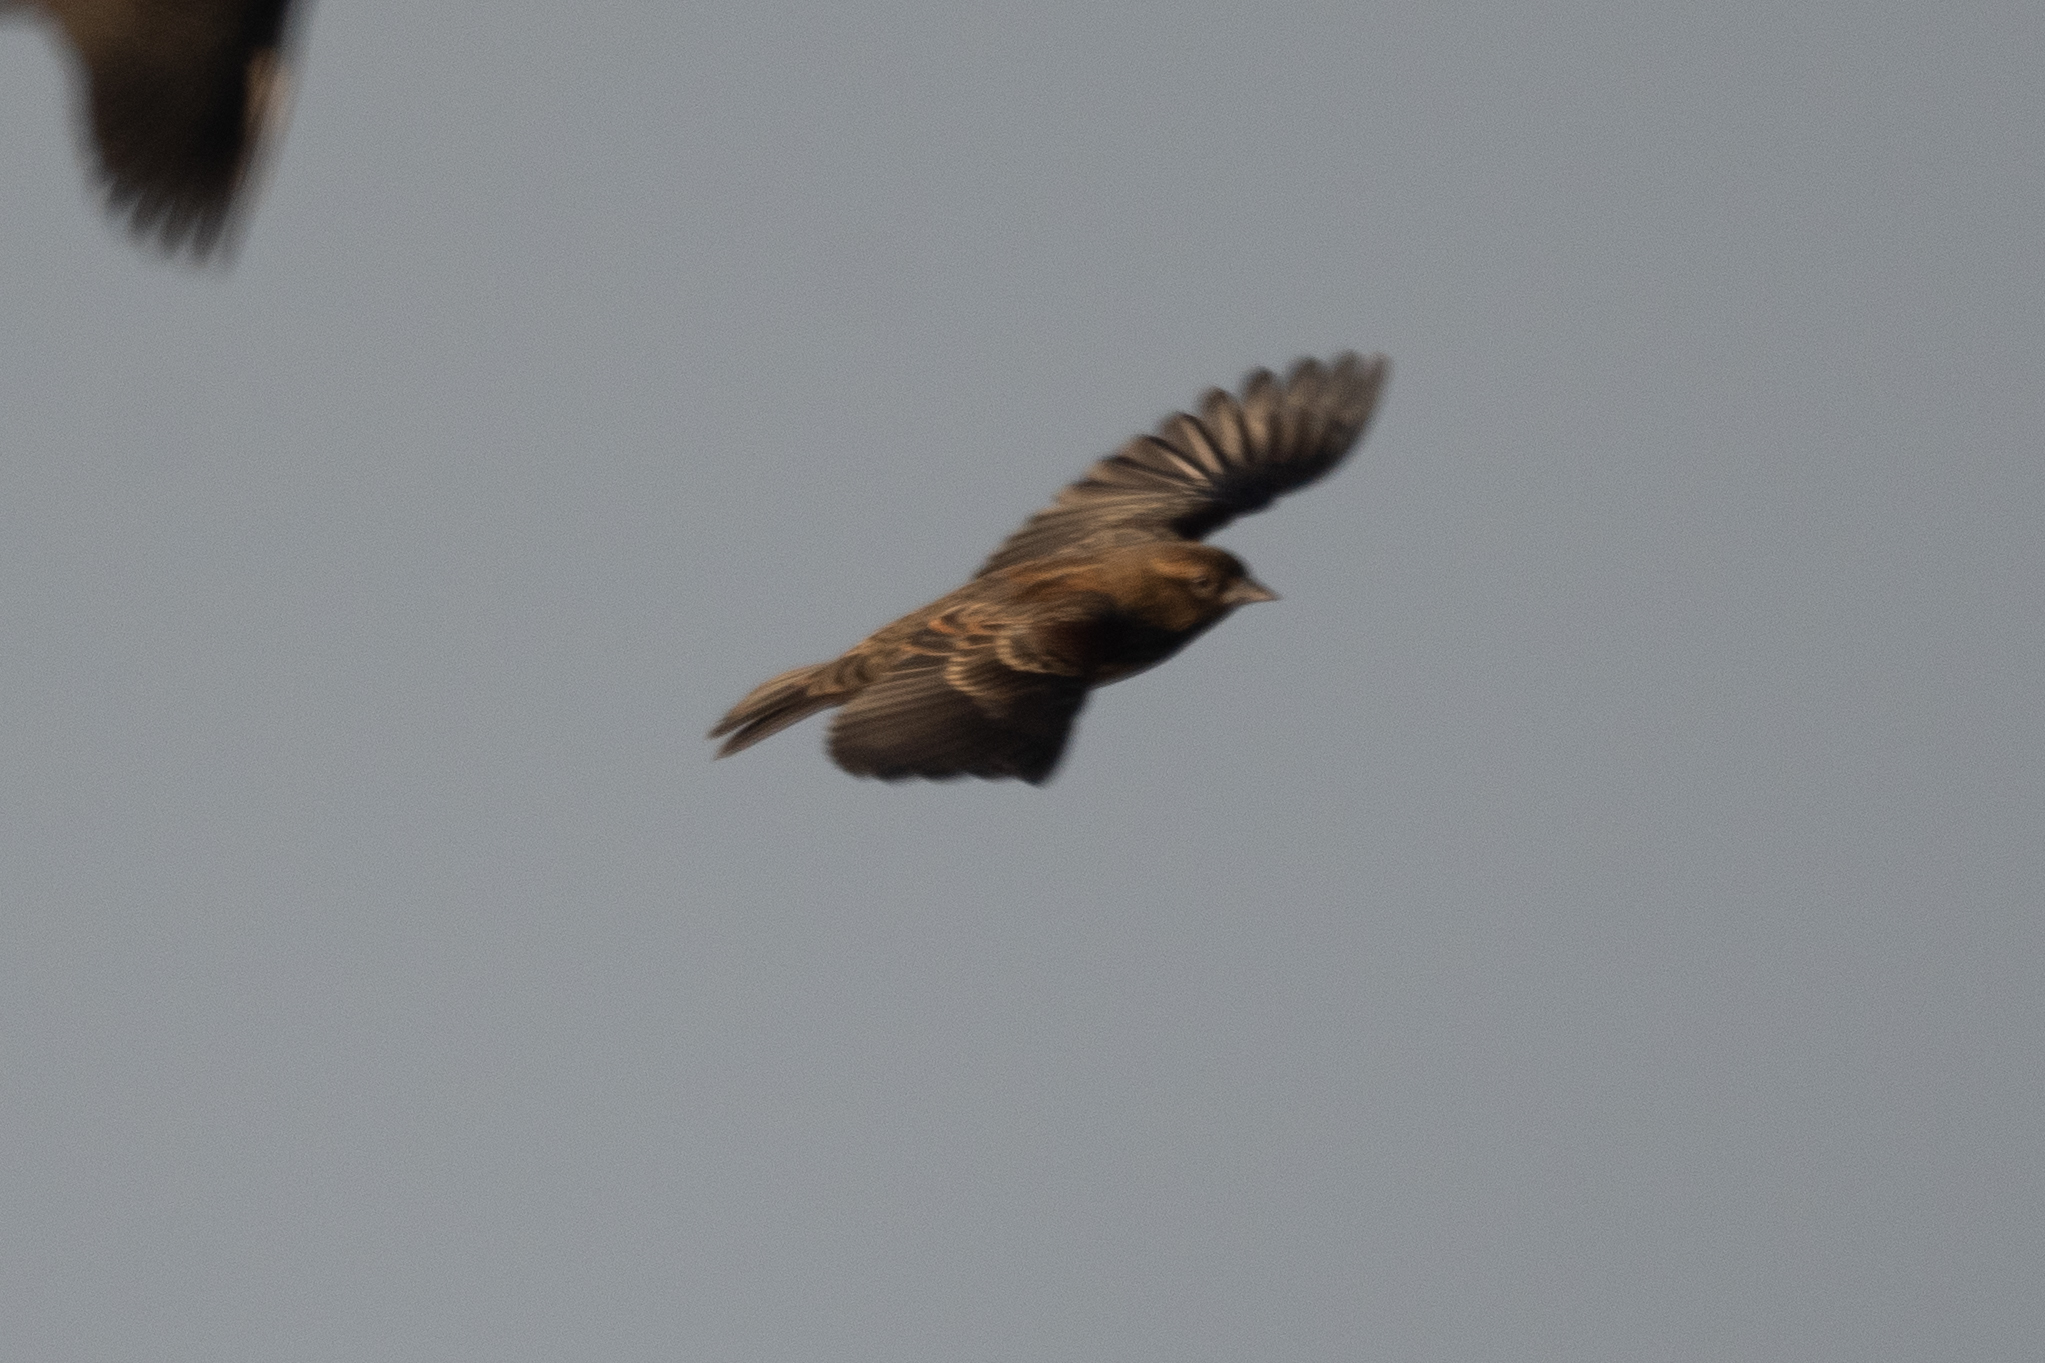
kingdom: Animalia
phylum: Chordata
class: Aves
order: Passeriformes
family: Icteridae
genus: Agelaius
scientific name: Agelaius phoeniceus
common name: Red-winged blackbird
